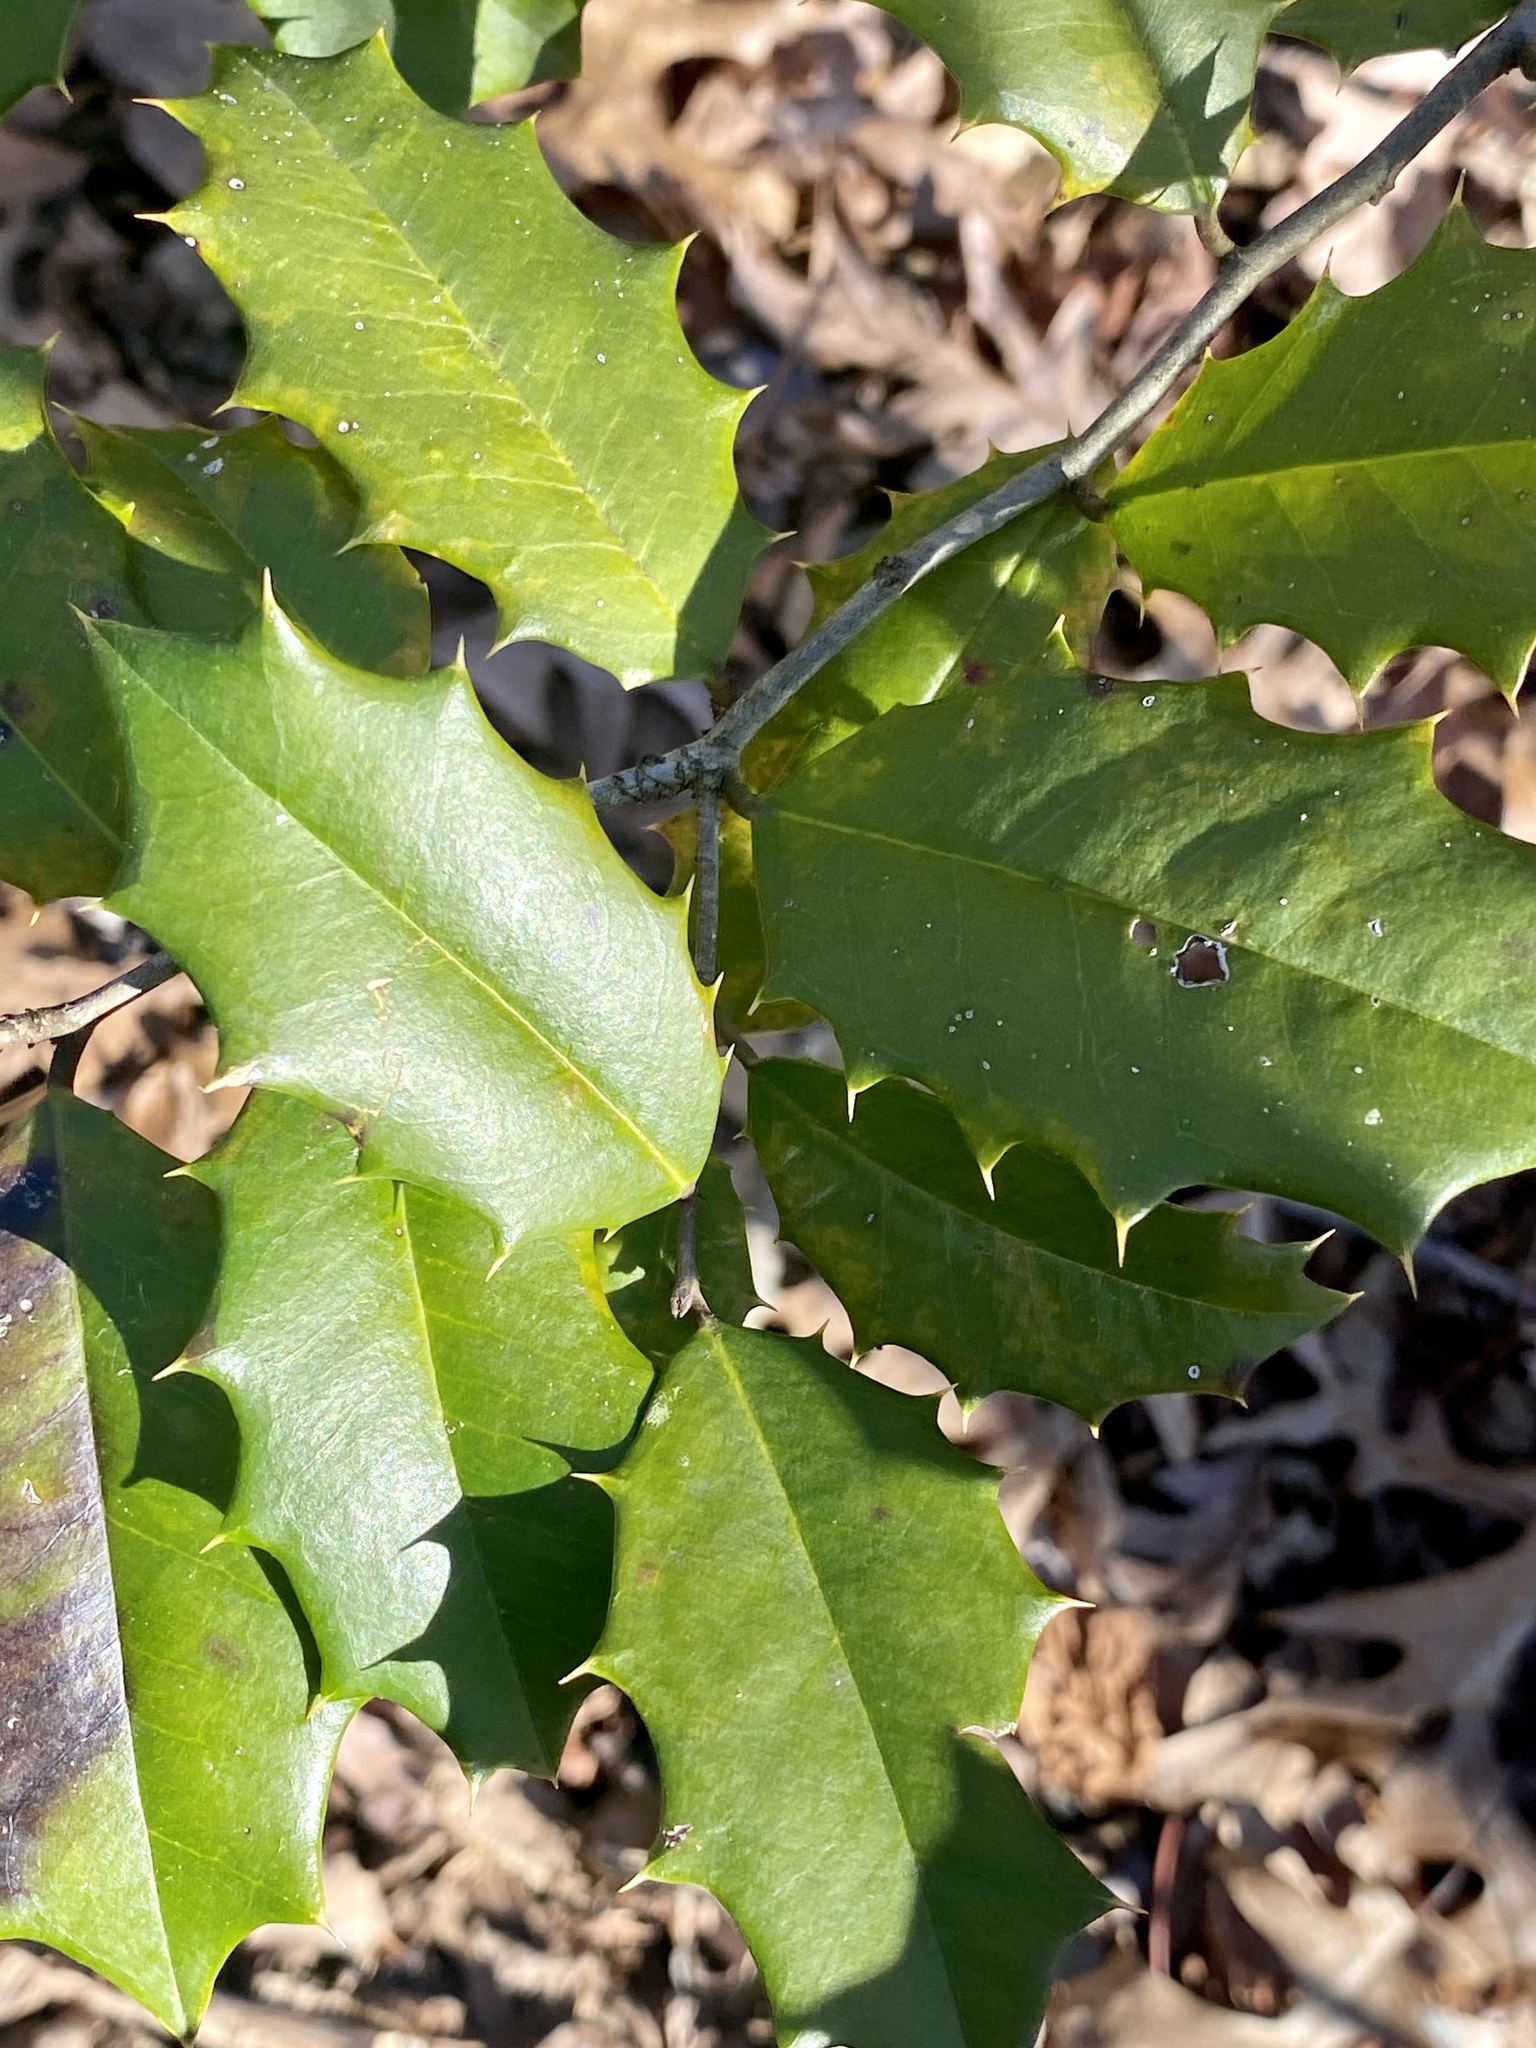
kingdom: Plantae
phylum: Tracheophyta
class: Magnoliopsida
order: Aquifoliales
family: Aquifoliaceae
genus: Ilex
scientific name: Ilex opaca
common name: American holly
